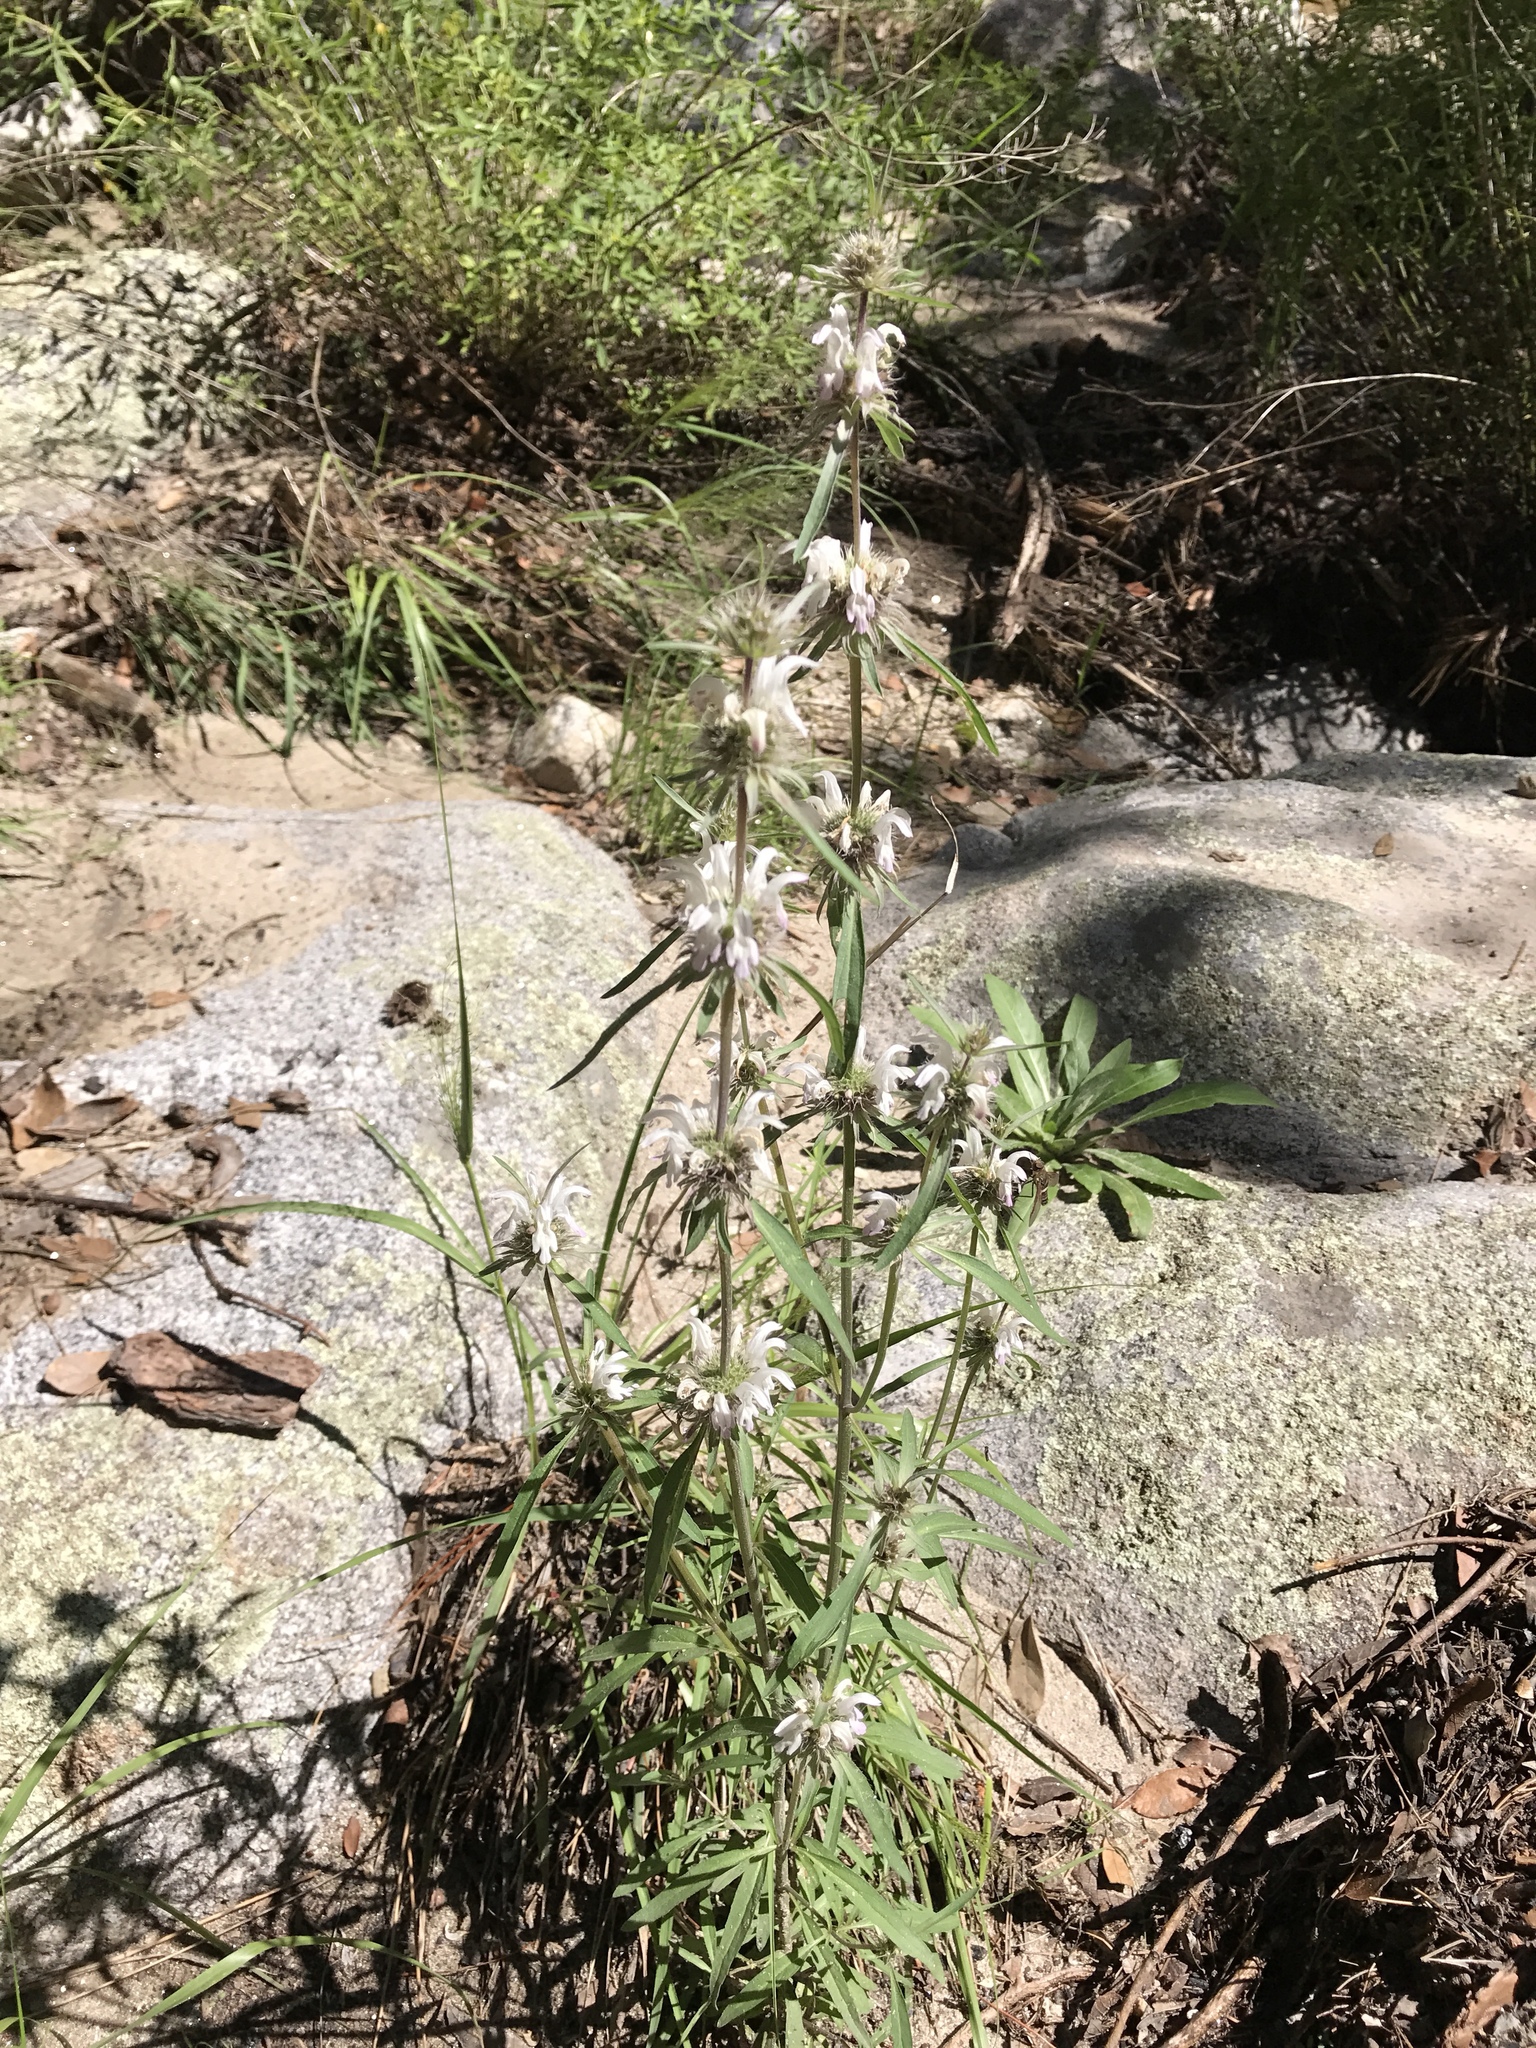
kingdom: Plantae
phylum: Tracheophyta
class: Magnoliopsida
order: Lamiales
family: Lamiaceae
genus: Monarda
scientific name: Monarda citriodora
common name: Lemon beebalm
